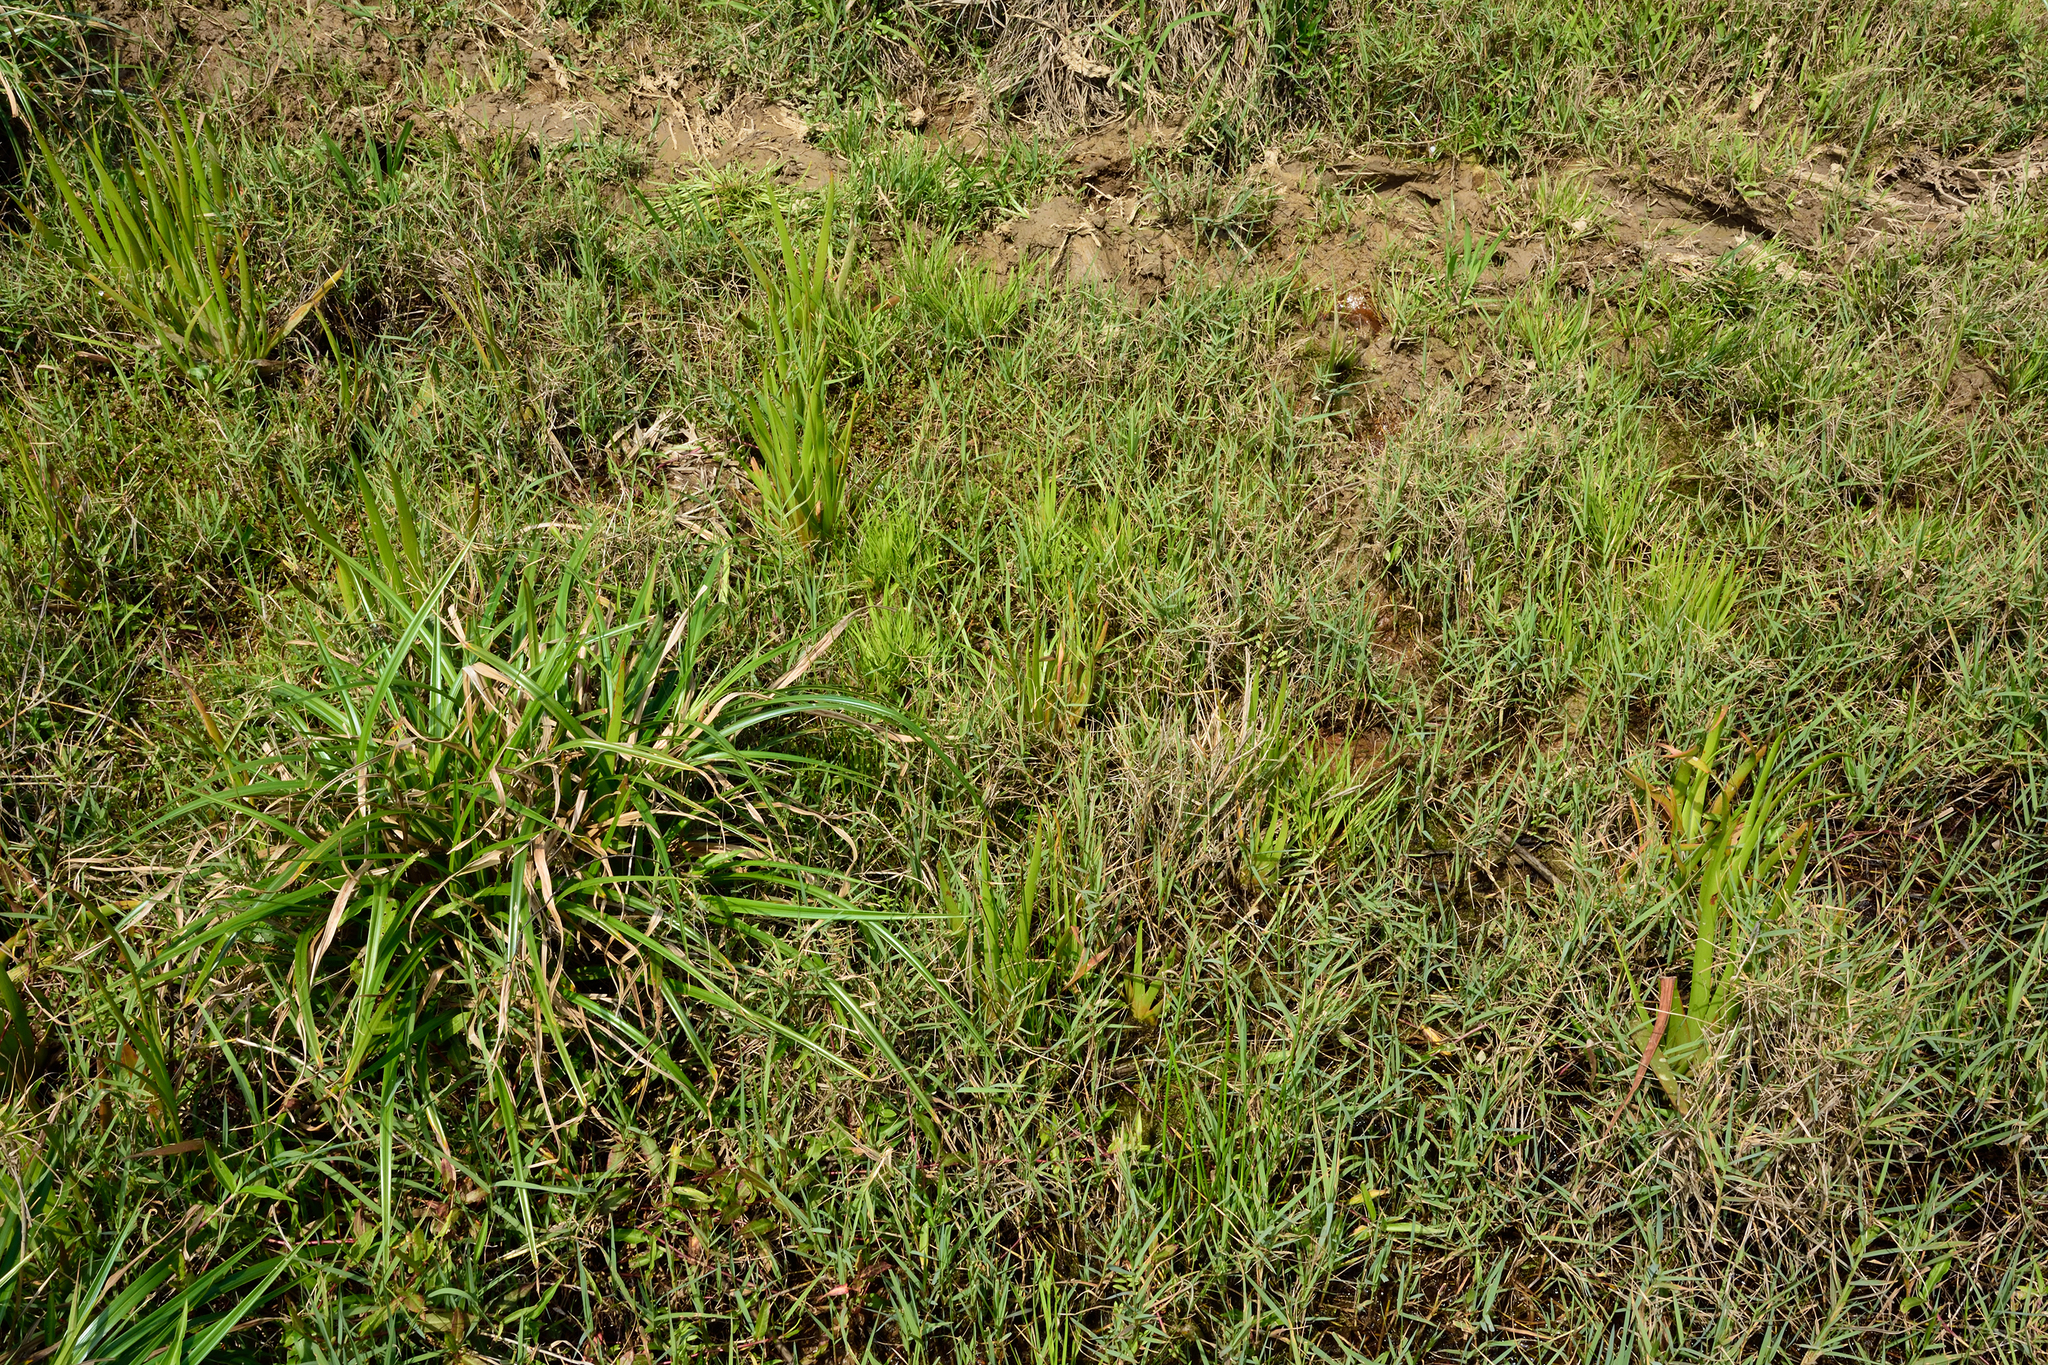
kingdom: Plantae
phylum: Tracheophyta
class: Liliopsida
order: Commelinales
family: Philydraceae
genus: Philydrum
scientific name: Philydrum lanuginosum
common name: Woolly frog's mouth
